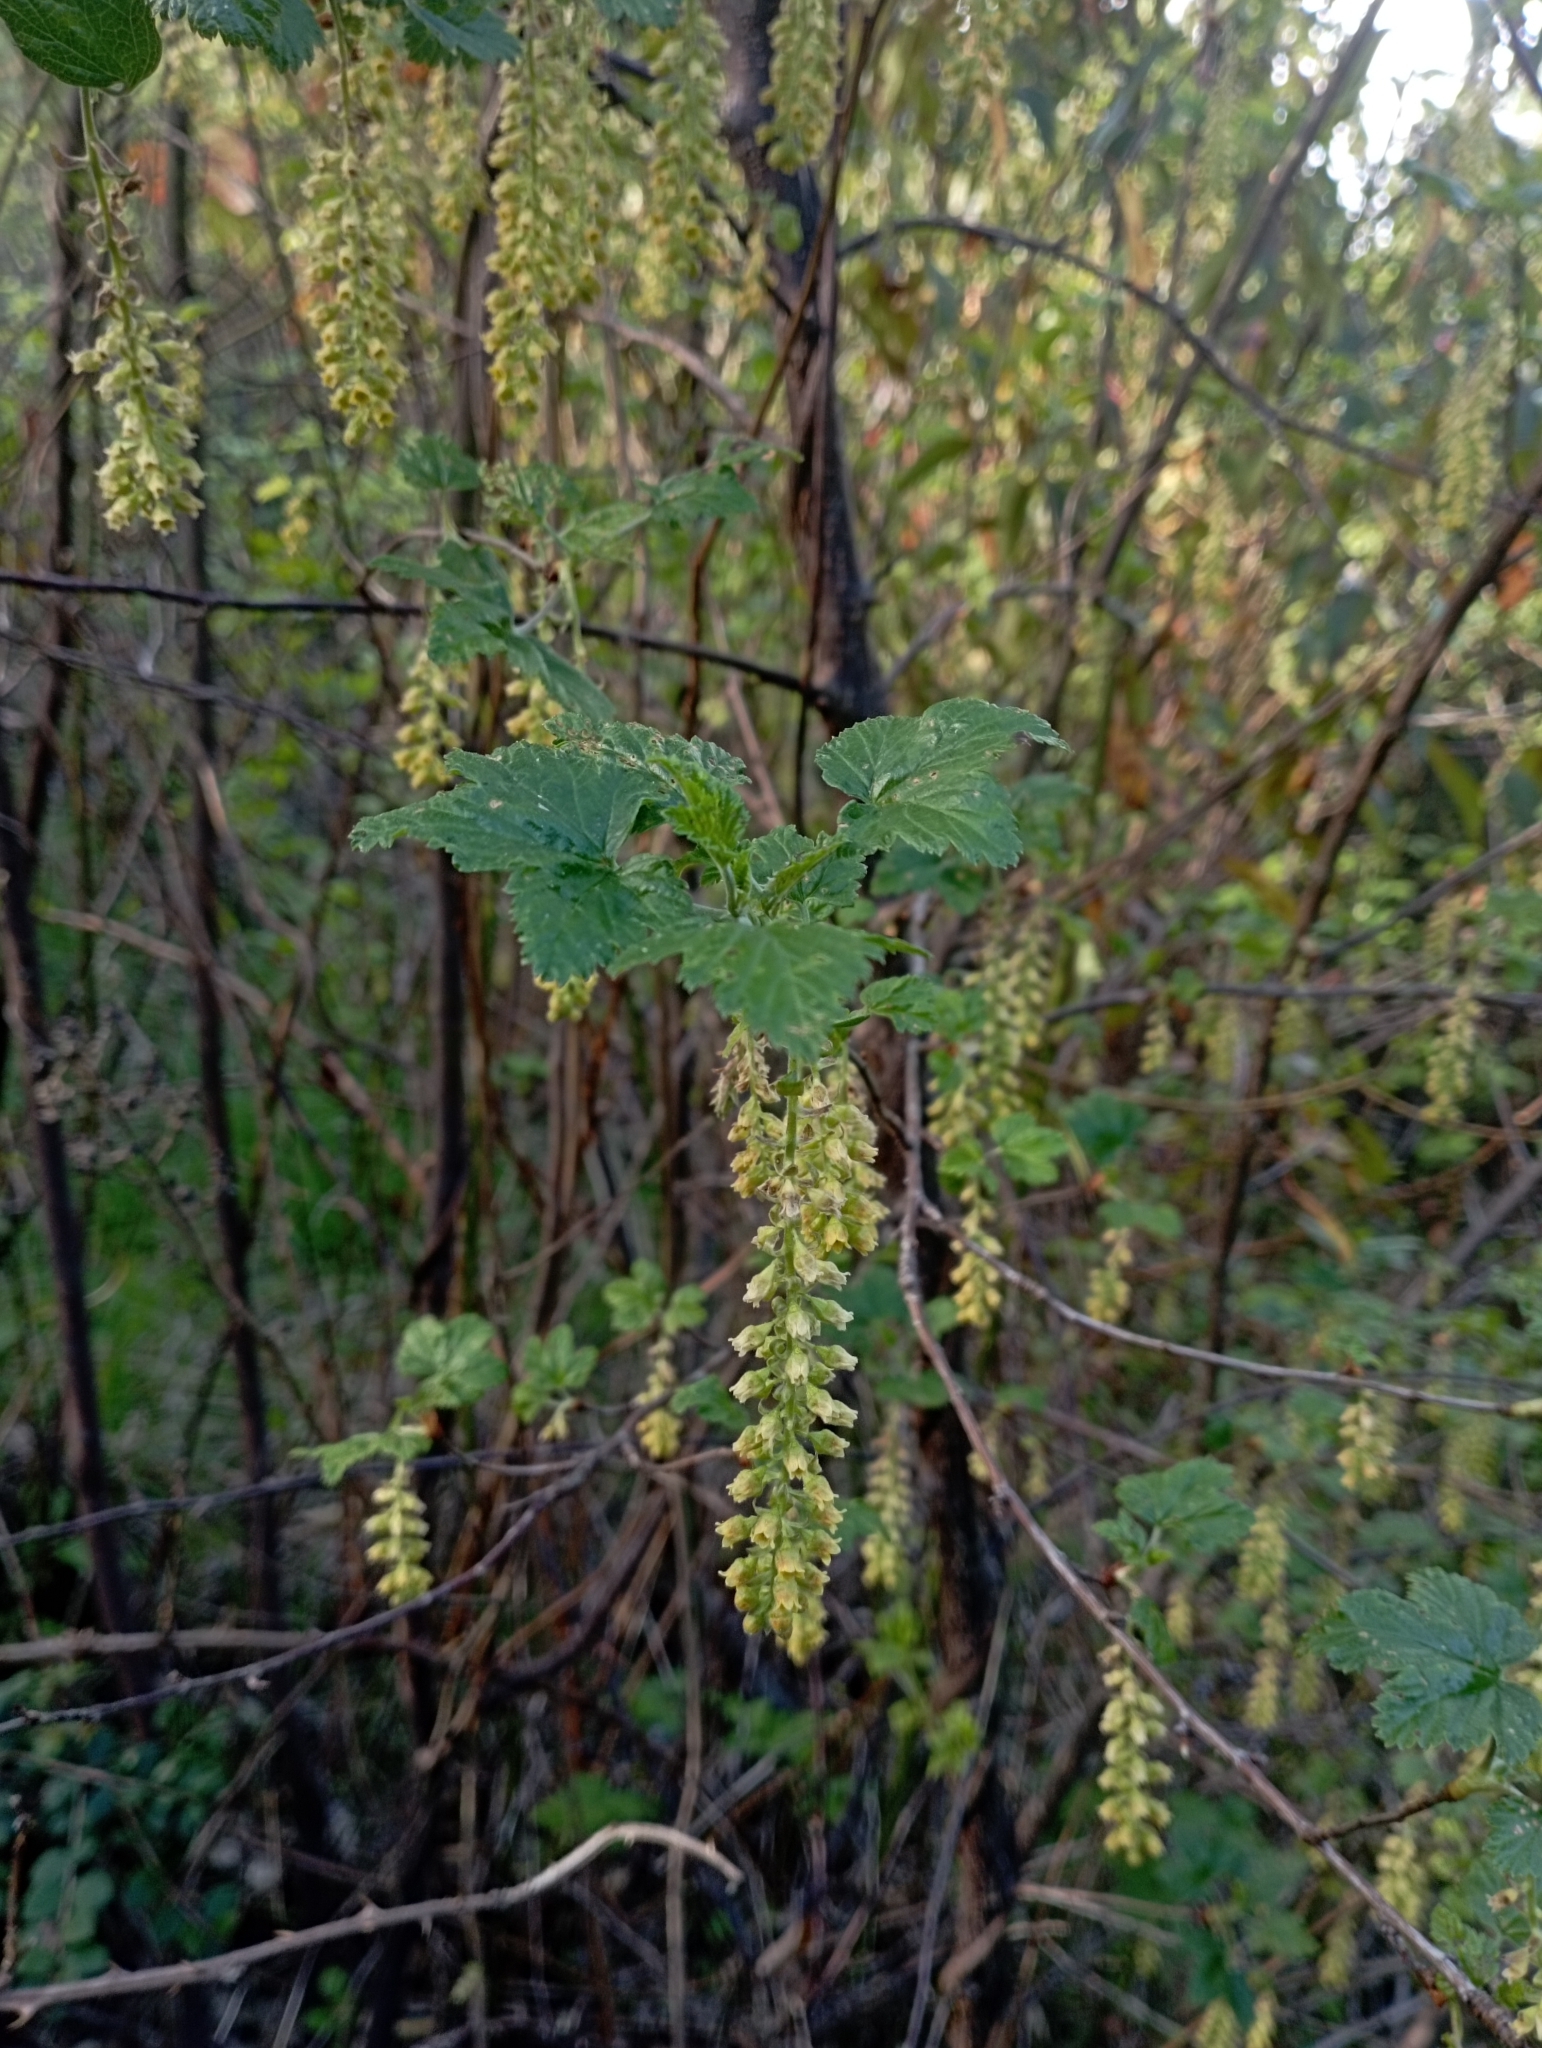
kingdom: Plantae
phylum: Tracheophyta
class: Magnoliopsida
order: Saxifragales
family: Grossulariaceae
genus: Ribes
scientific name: Ribes magellanicum
